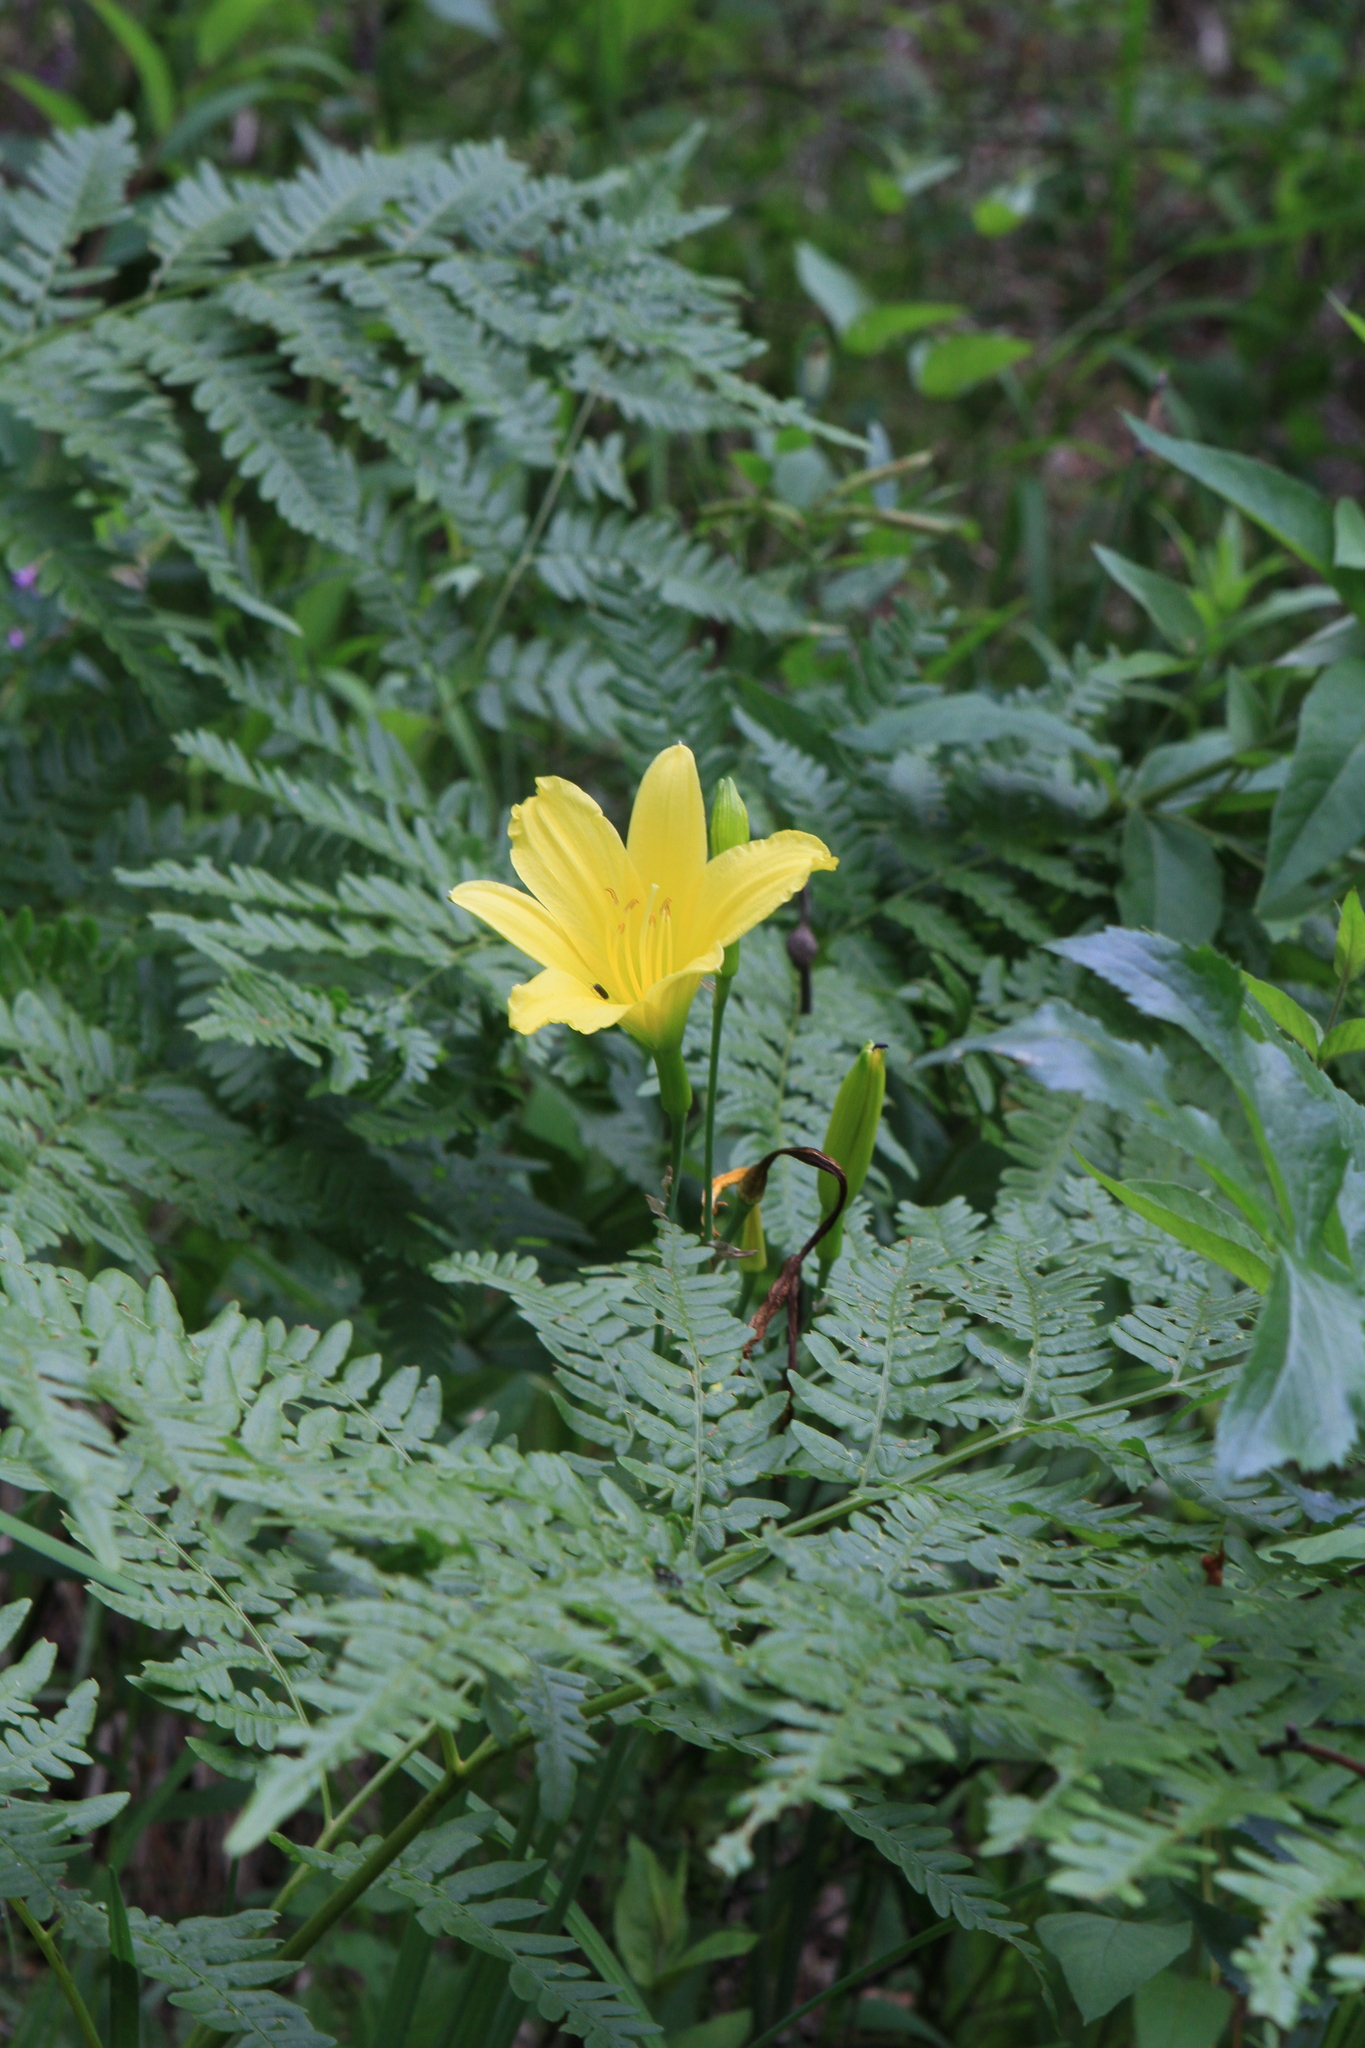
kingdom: Plantae
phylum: Tracheophyta
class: Liliopsida
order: Asparagales
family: Asphodelaceae
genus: Hemerocallis
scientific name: Hemerocallis minor
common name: Small daylily
